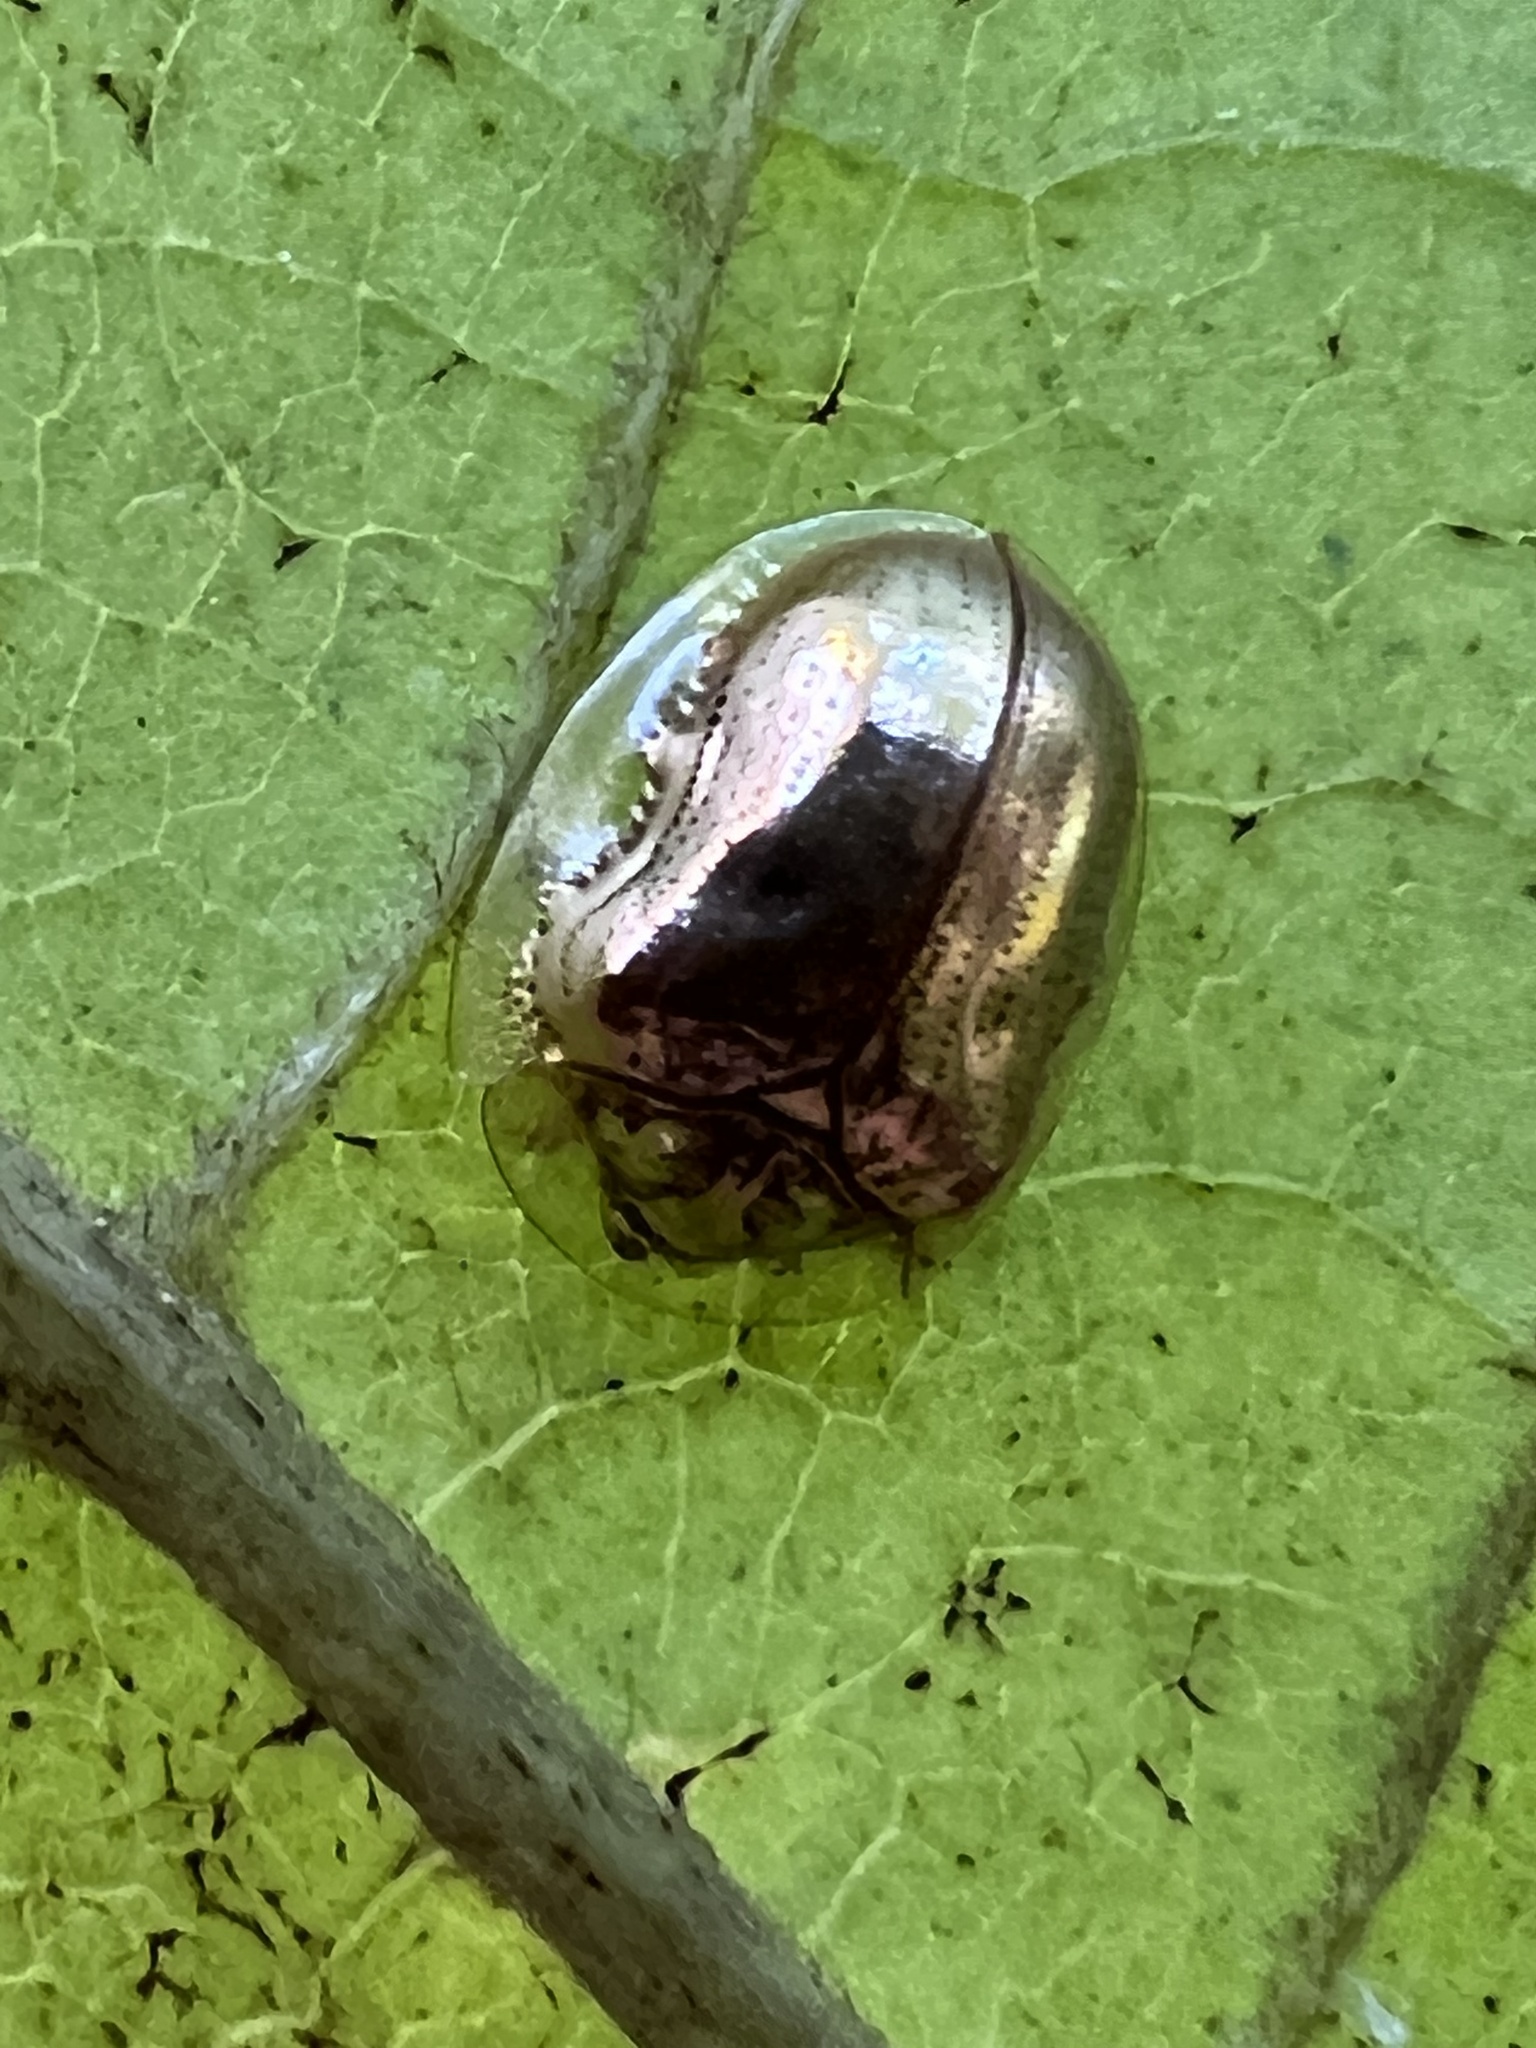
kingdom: Animalia
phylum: Arthropoda
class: Insecta
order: Coleoptera
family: Chrysomelidae
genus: Charidotella
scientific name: Charidotella sexpunctata
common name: Golden tortoise beetle
